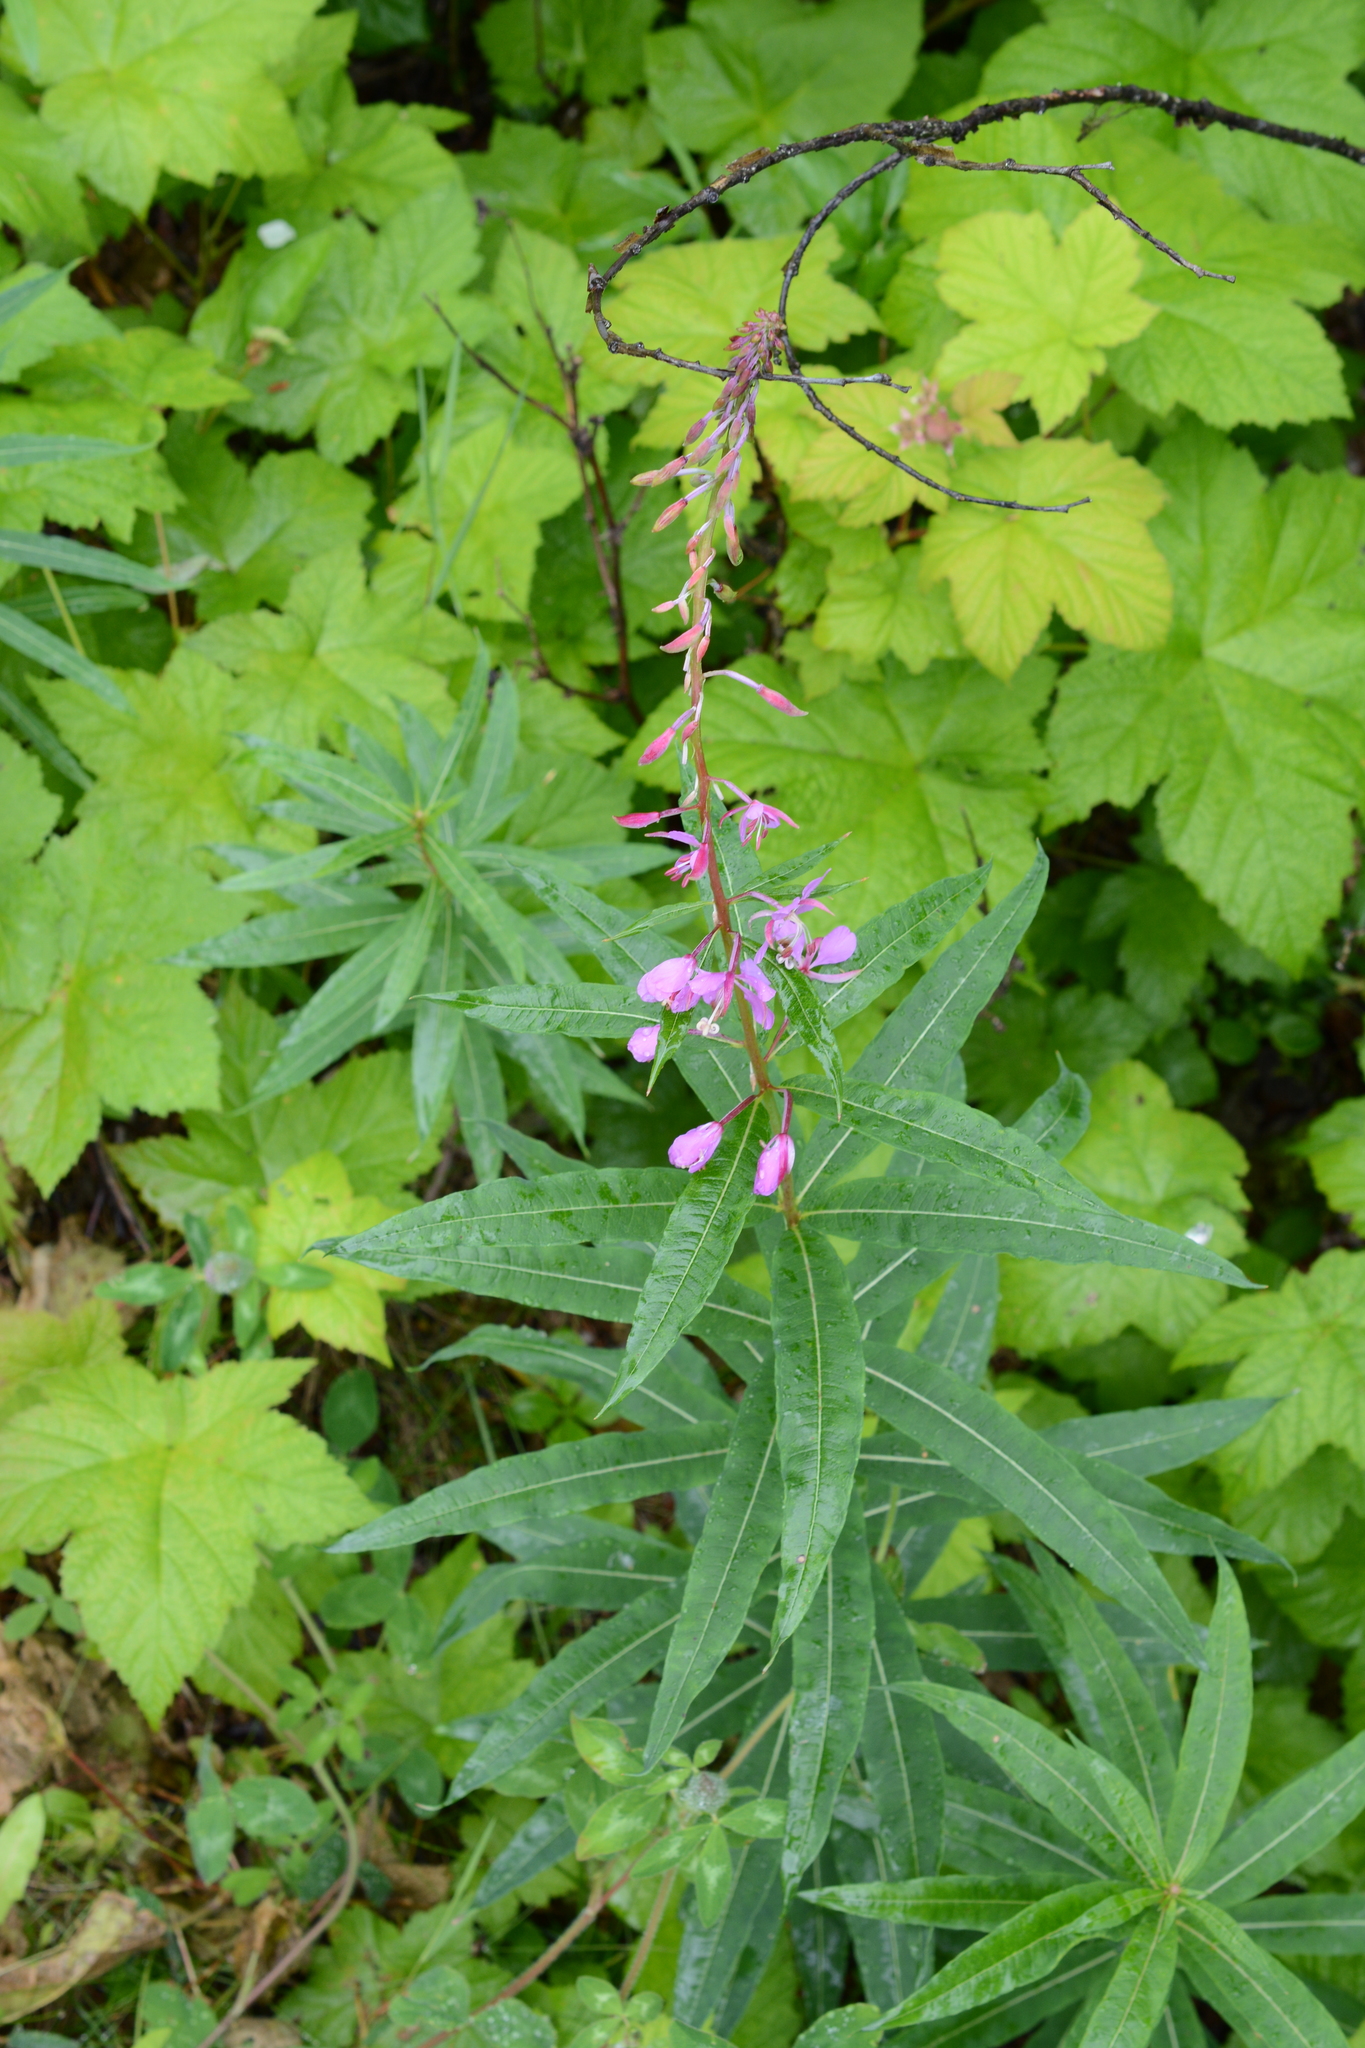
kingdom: Plantae
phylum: Tracheophyta
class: Magnoliopsida
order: Myrtales
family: Onagraceae
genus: Chamaenerion
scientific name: Chamaenerion angustifolium
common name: Fireweed
